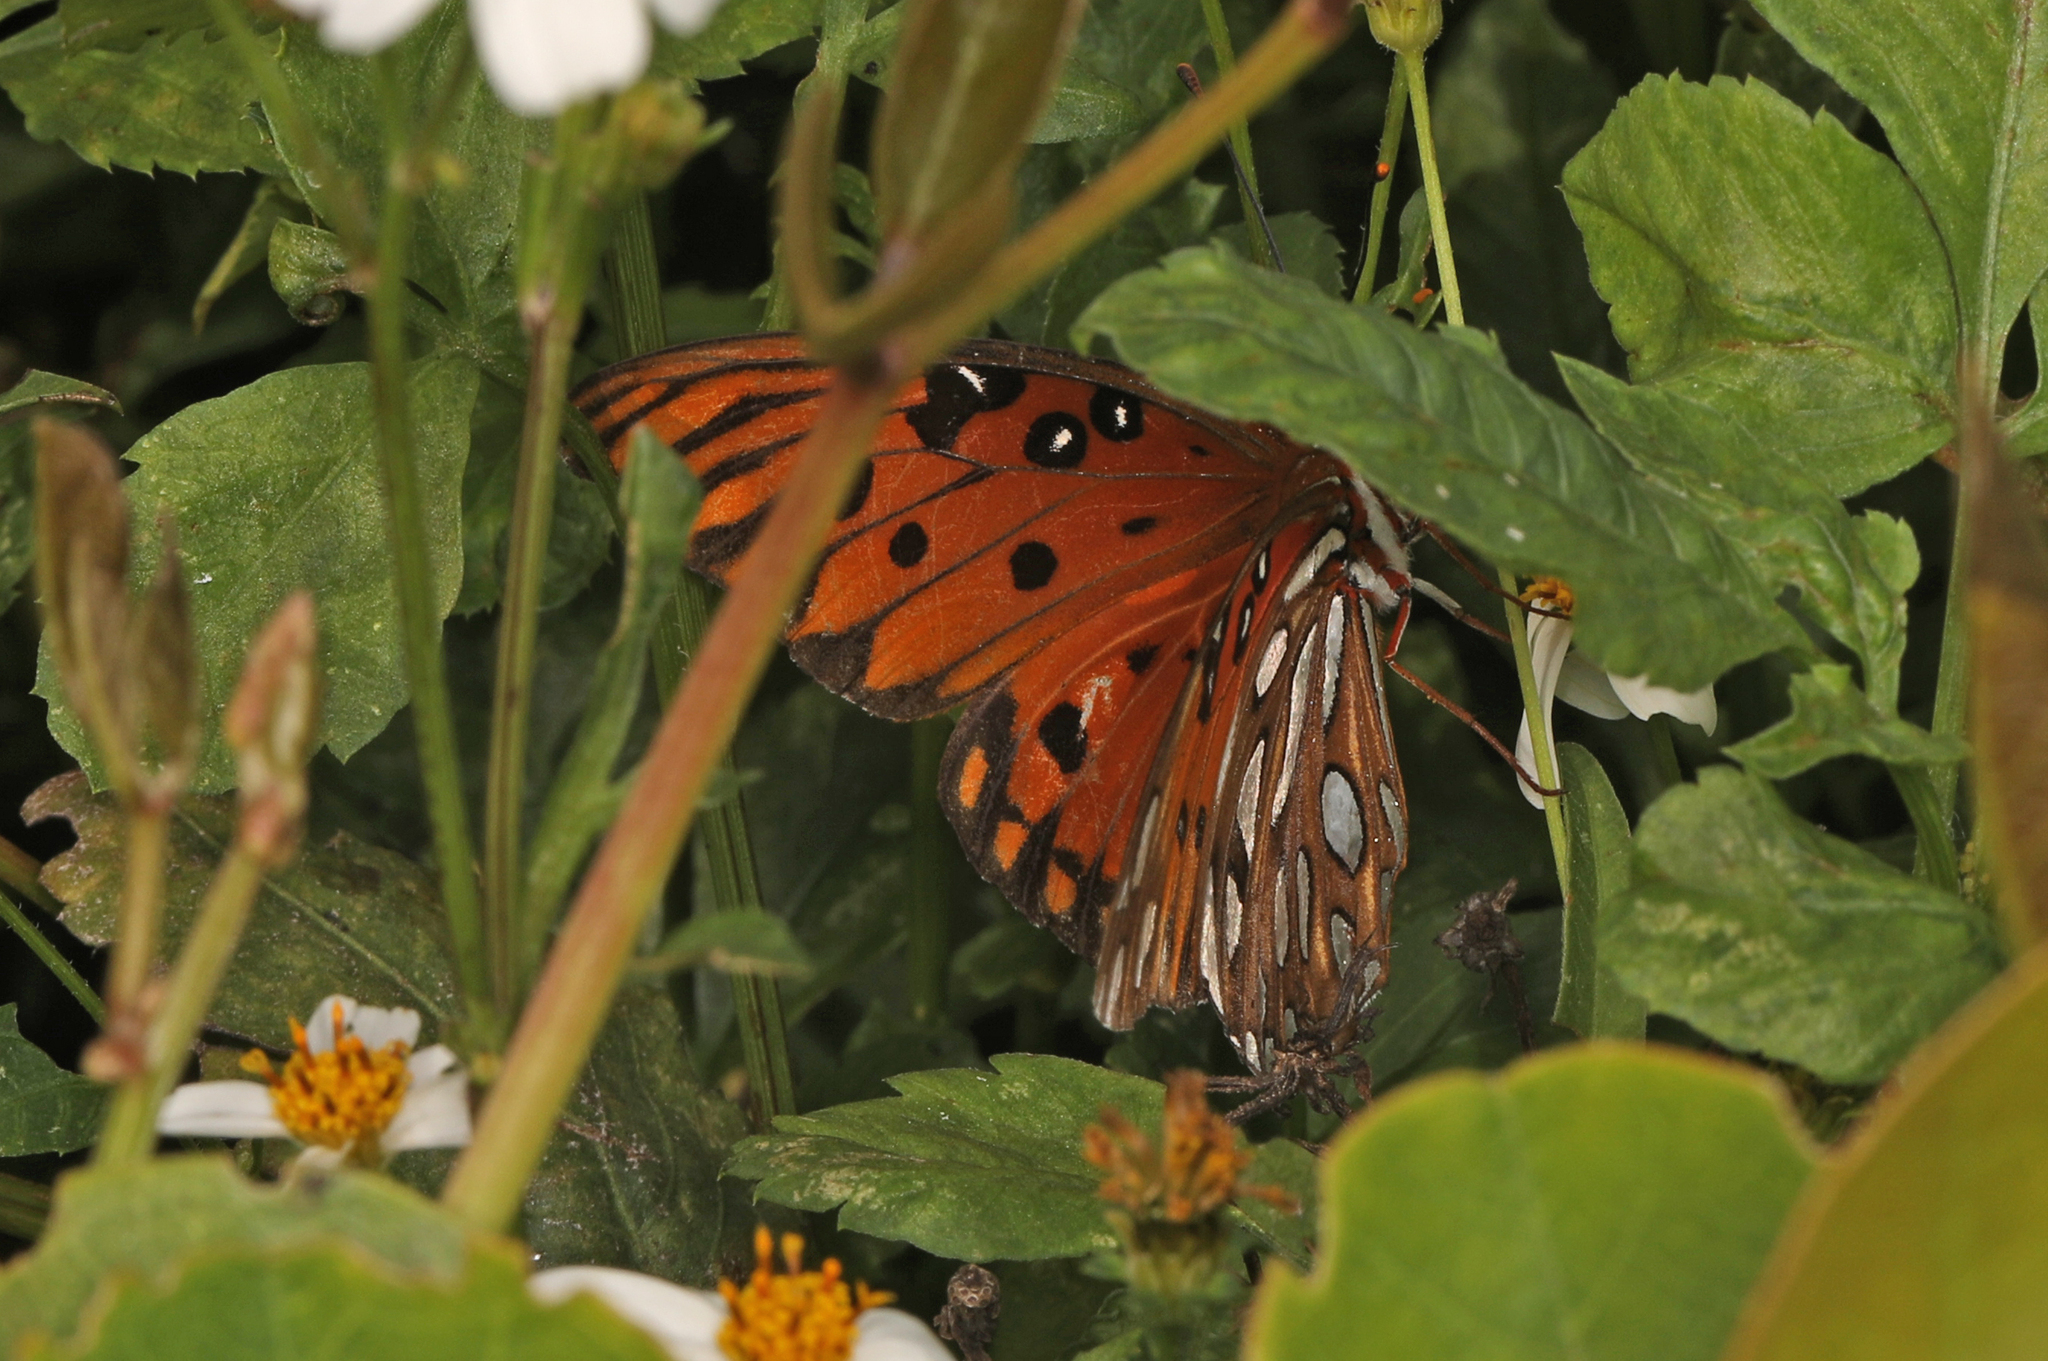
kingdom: Animalia
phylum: Arthropoda
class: Insecta
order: Lepidoptera
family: Nymphalidae
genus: Dione
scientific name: Dione vanillae
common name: Gulf fritillary
